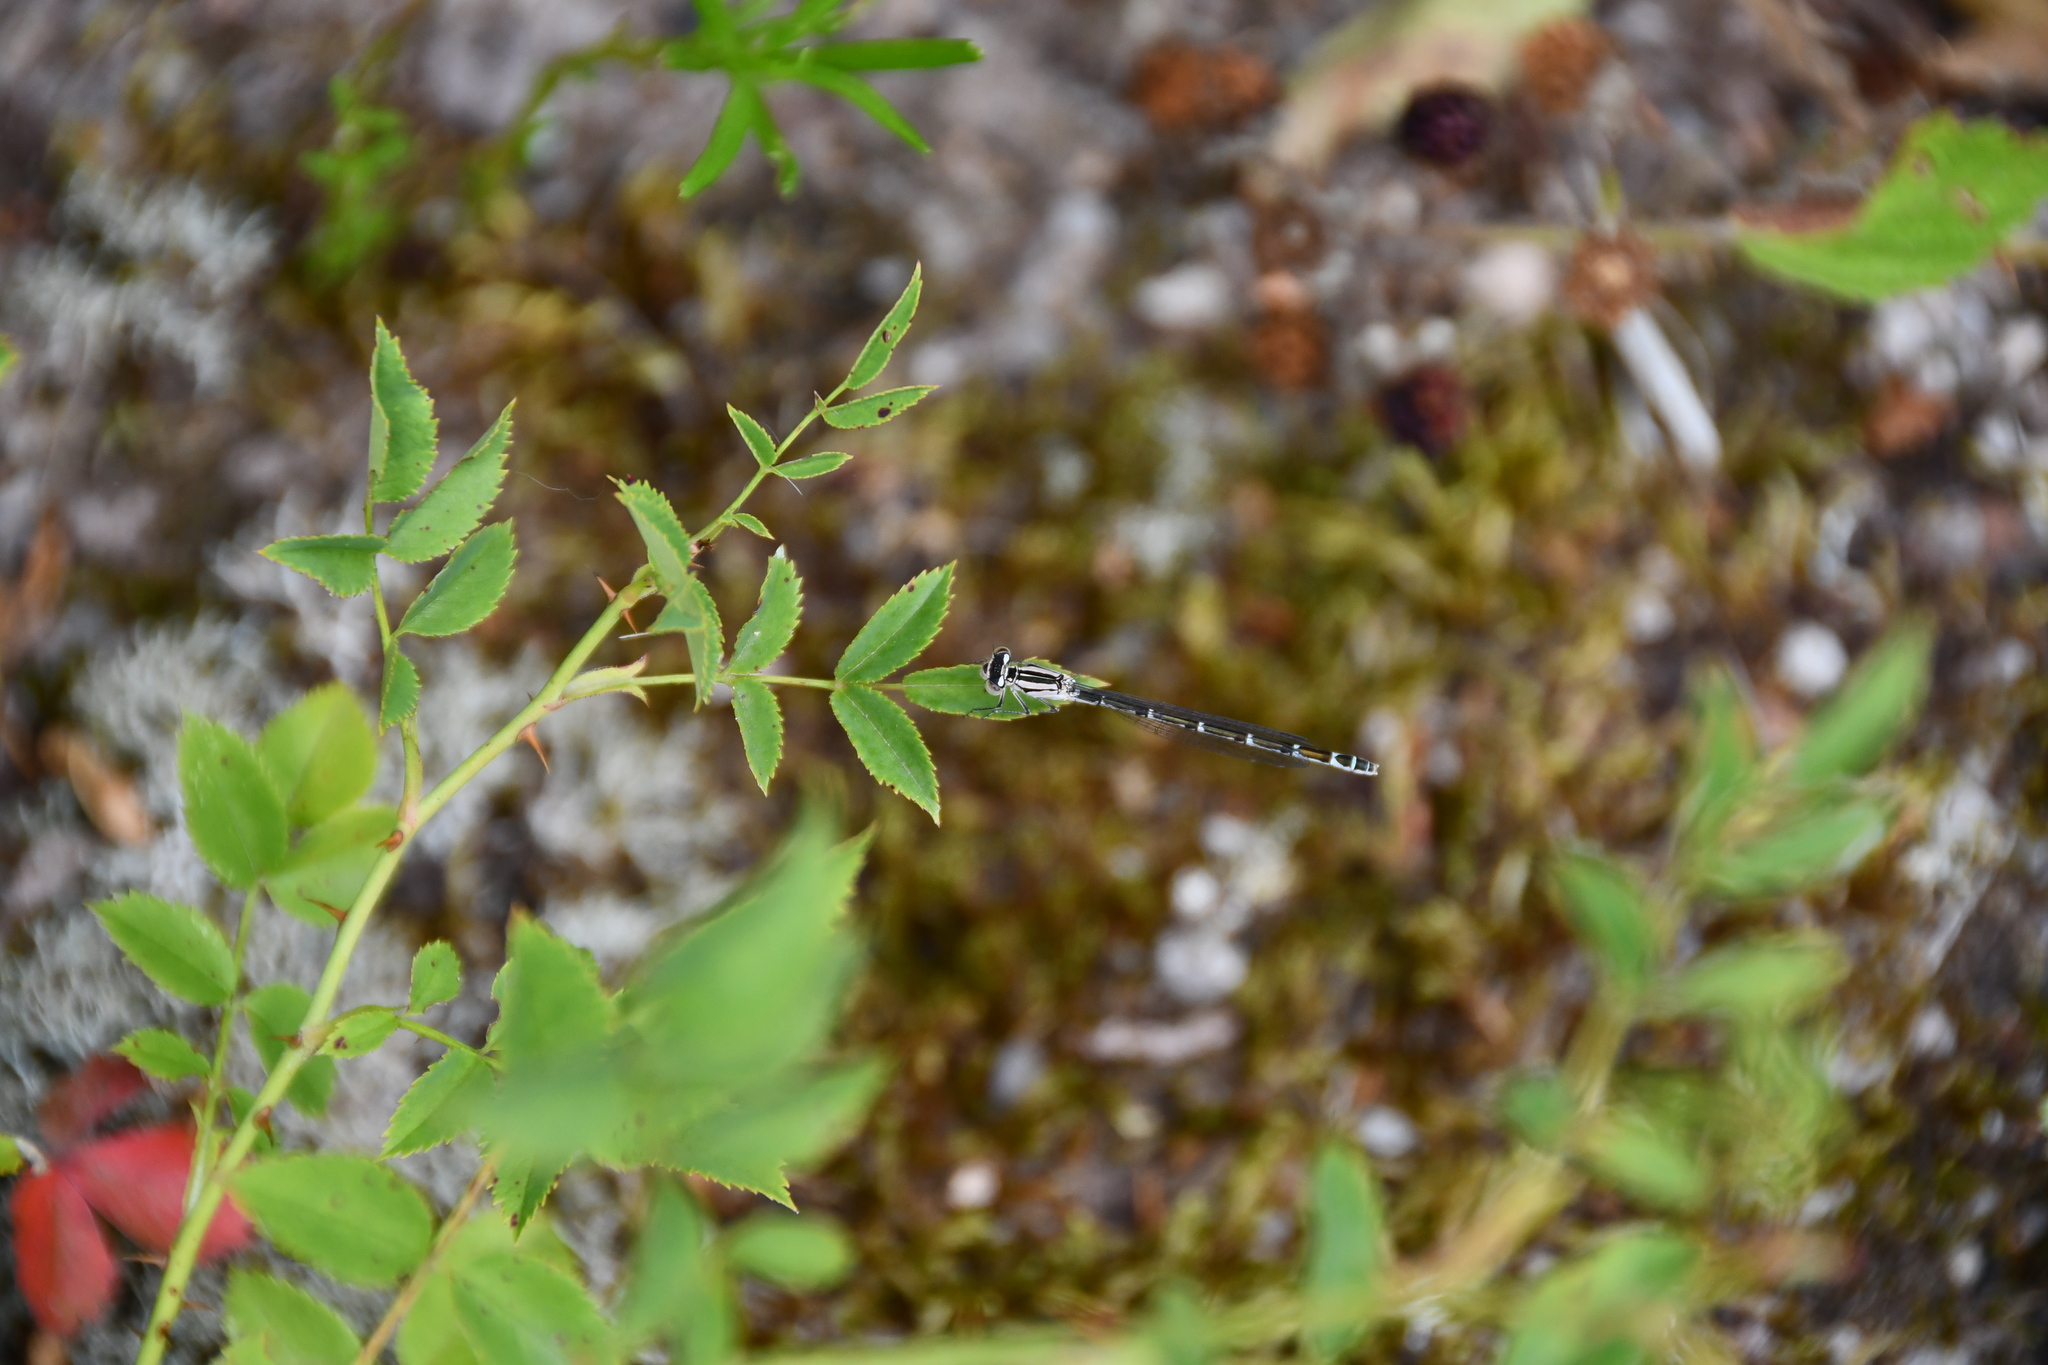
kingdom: Animalia
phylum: Arthropoda
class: Insecta
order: Odonata
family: Coenagrionidae
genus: Enallagma
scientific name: Enallagma cyathigerum
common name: Common blue damselfly
